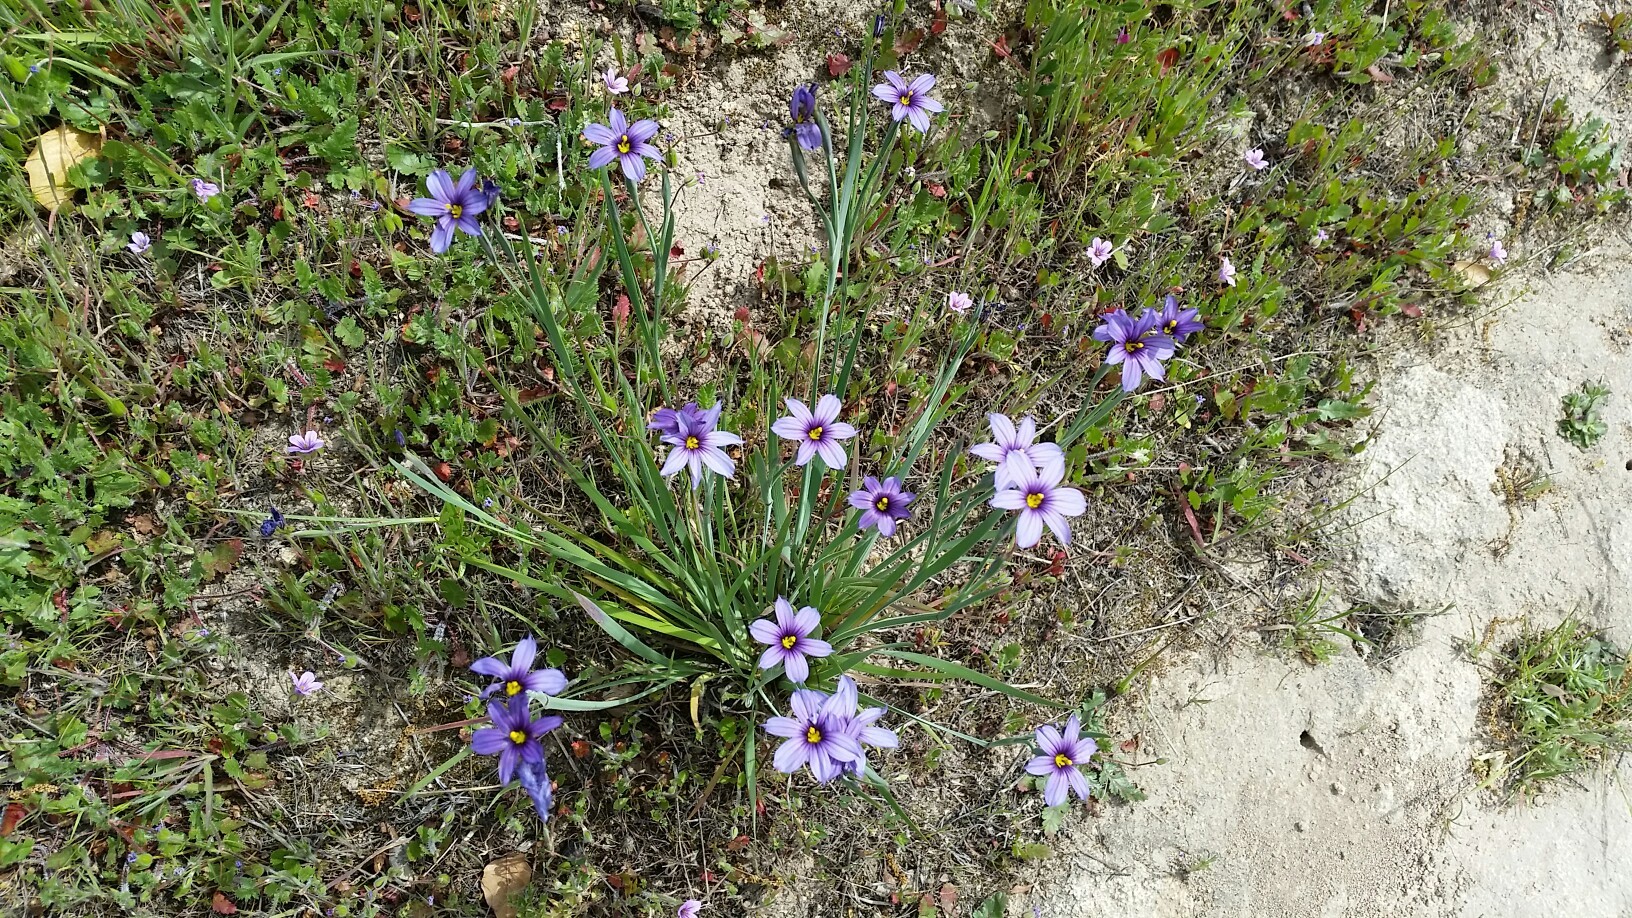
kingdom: Plantae
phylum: Tracheophyta
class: Liliopsida
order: Asparagales
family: Iridaceae
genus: Sisyrinchium
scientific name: Sisyrinchium bellum
